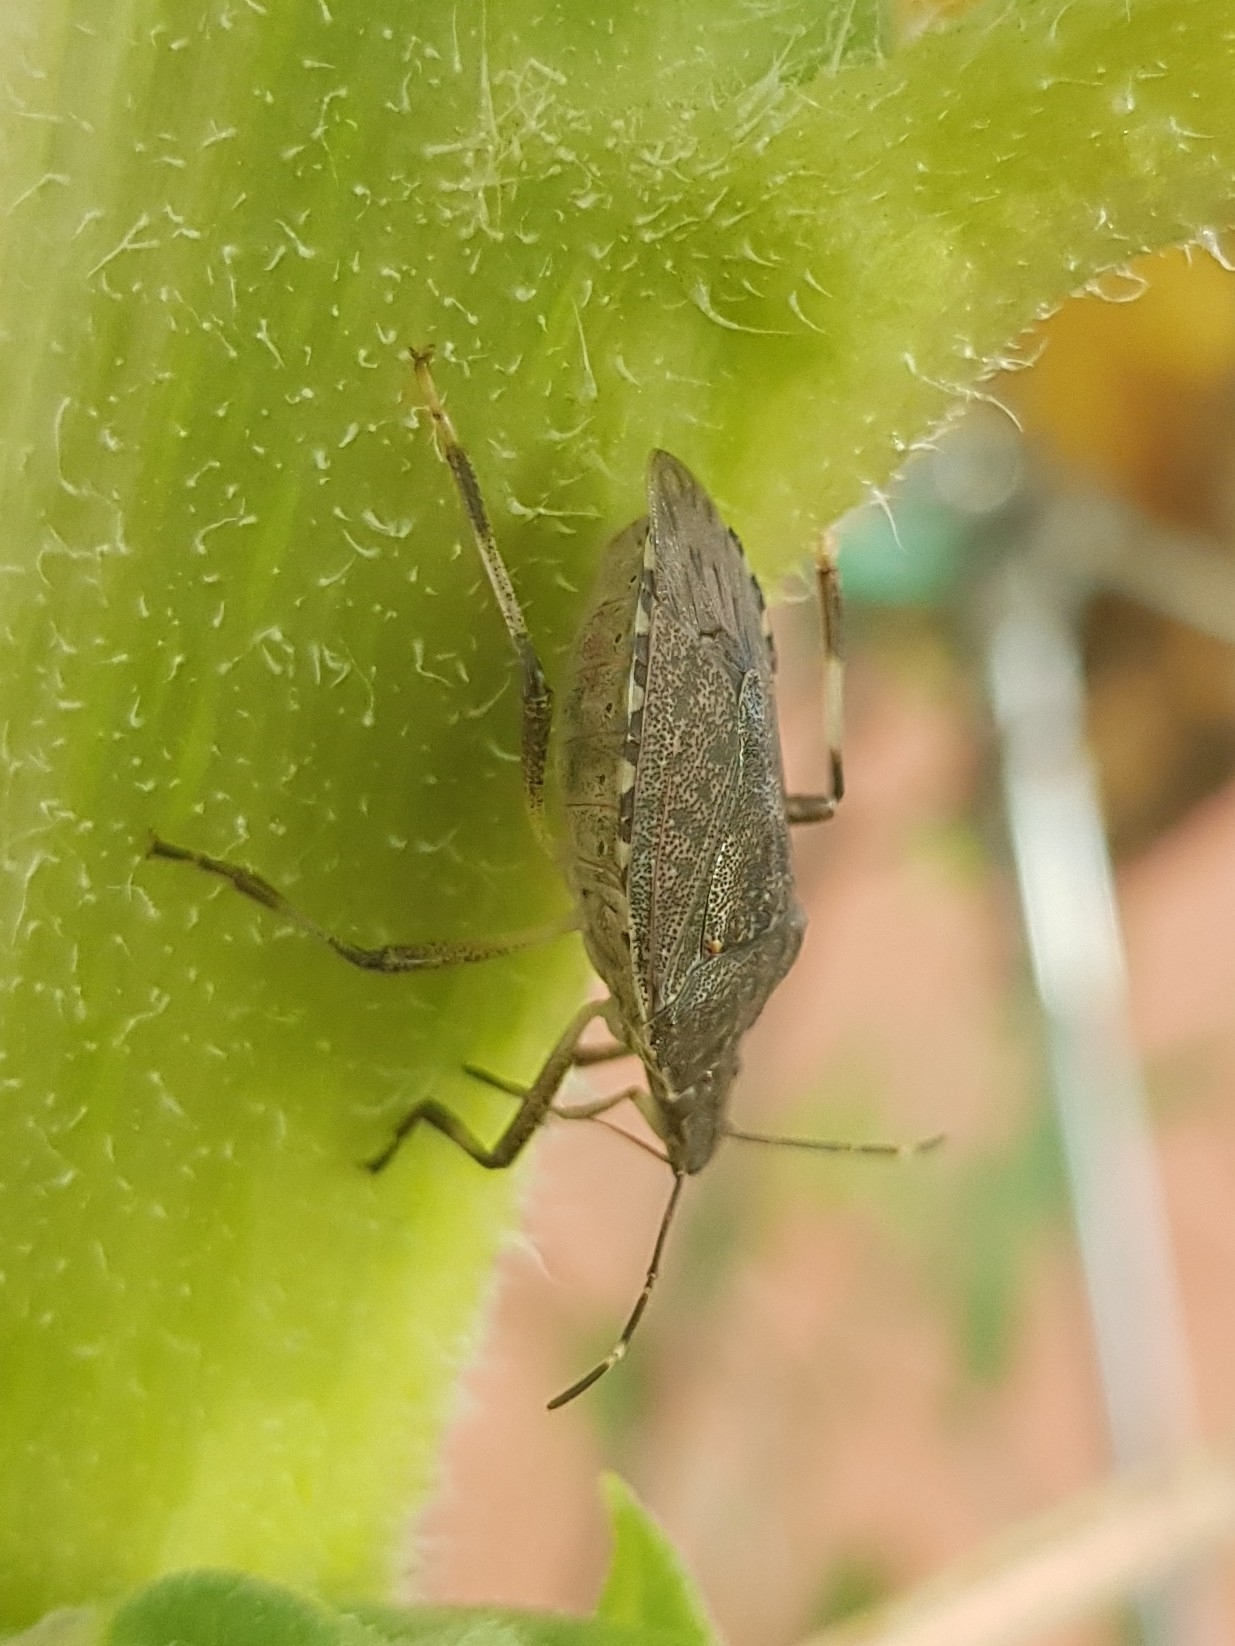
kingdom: Animalia
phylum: Arthropoda
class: Insecta
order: Hemiptera
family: Pentatomidae
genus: Halyomorpha
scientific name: Halyomorpha halys
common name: Brown marmorated stink bug
